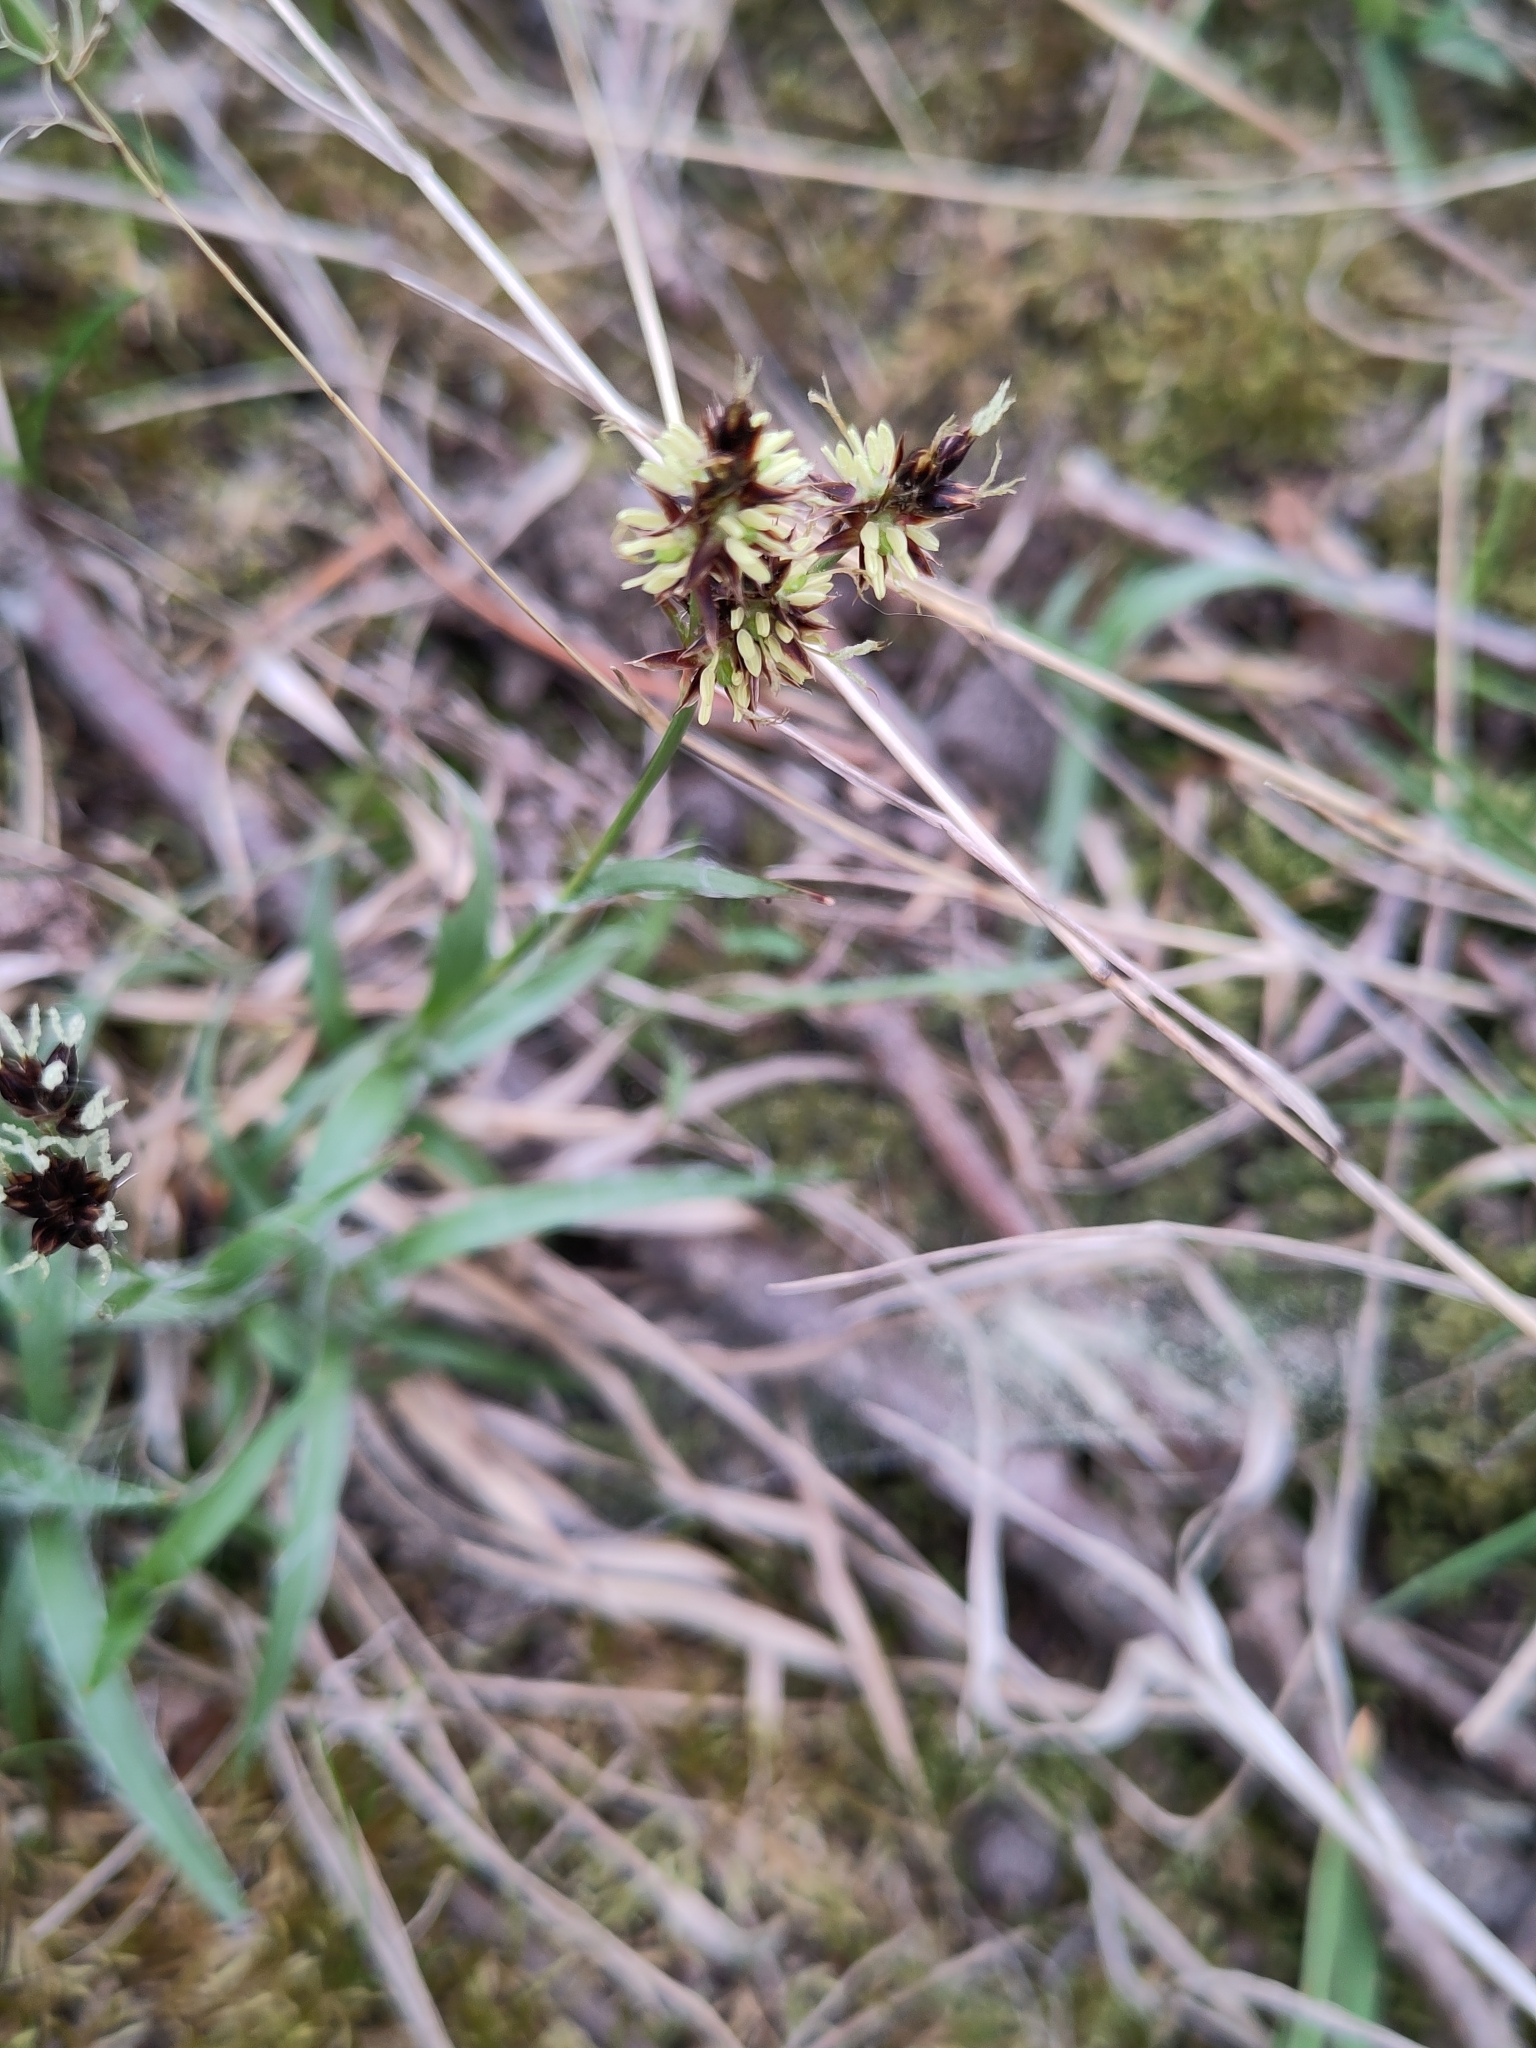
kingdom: Plantae
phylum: Tracheophyta
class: Liliopsida
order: Poales
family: Juncaceae
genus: Luzula
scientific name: Luzula campestris
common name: Field wood-rush
